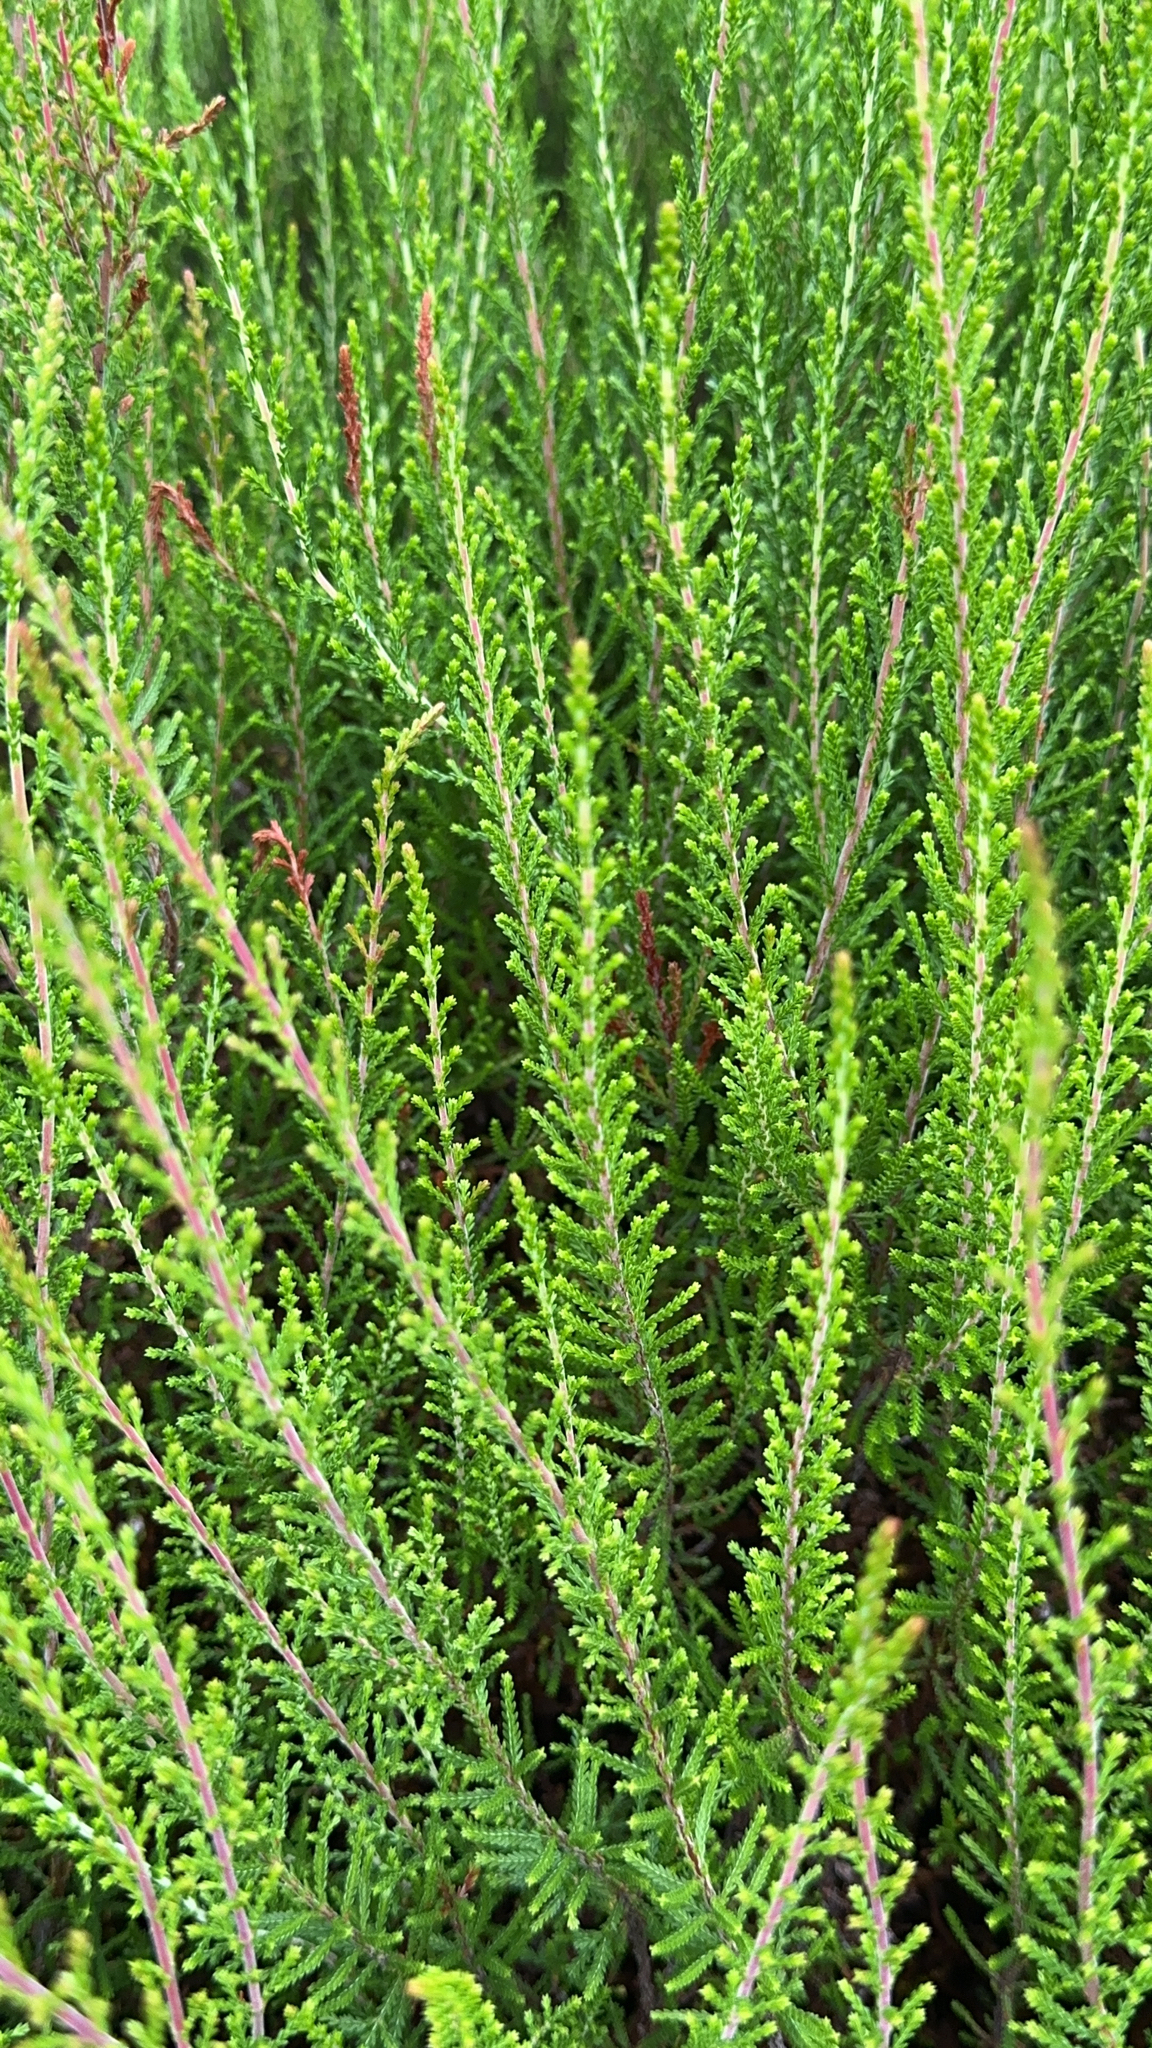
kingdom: Plantae
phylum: Tracheophyta
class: Magnoliopsida
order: Ericales
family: Ericaceae
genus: Calluna
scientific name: Calluna vulgaris
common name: Heather
